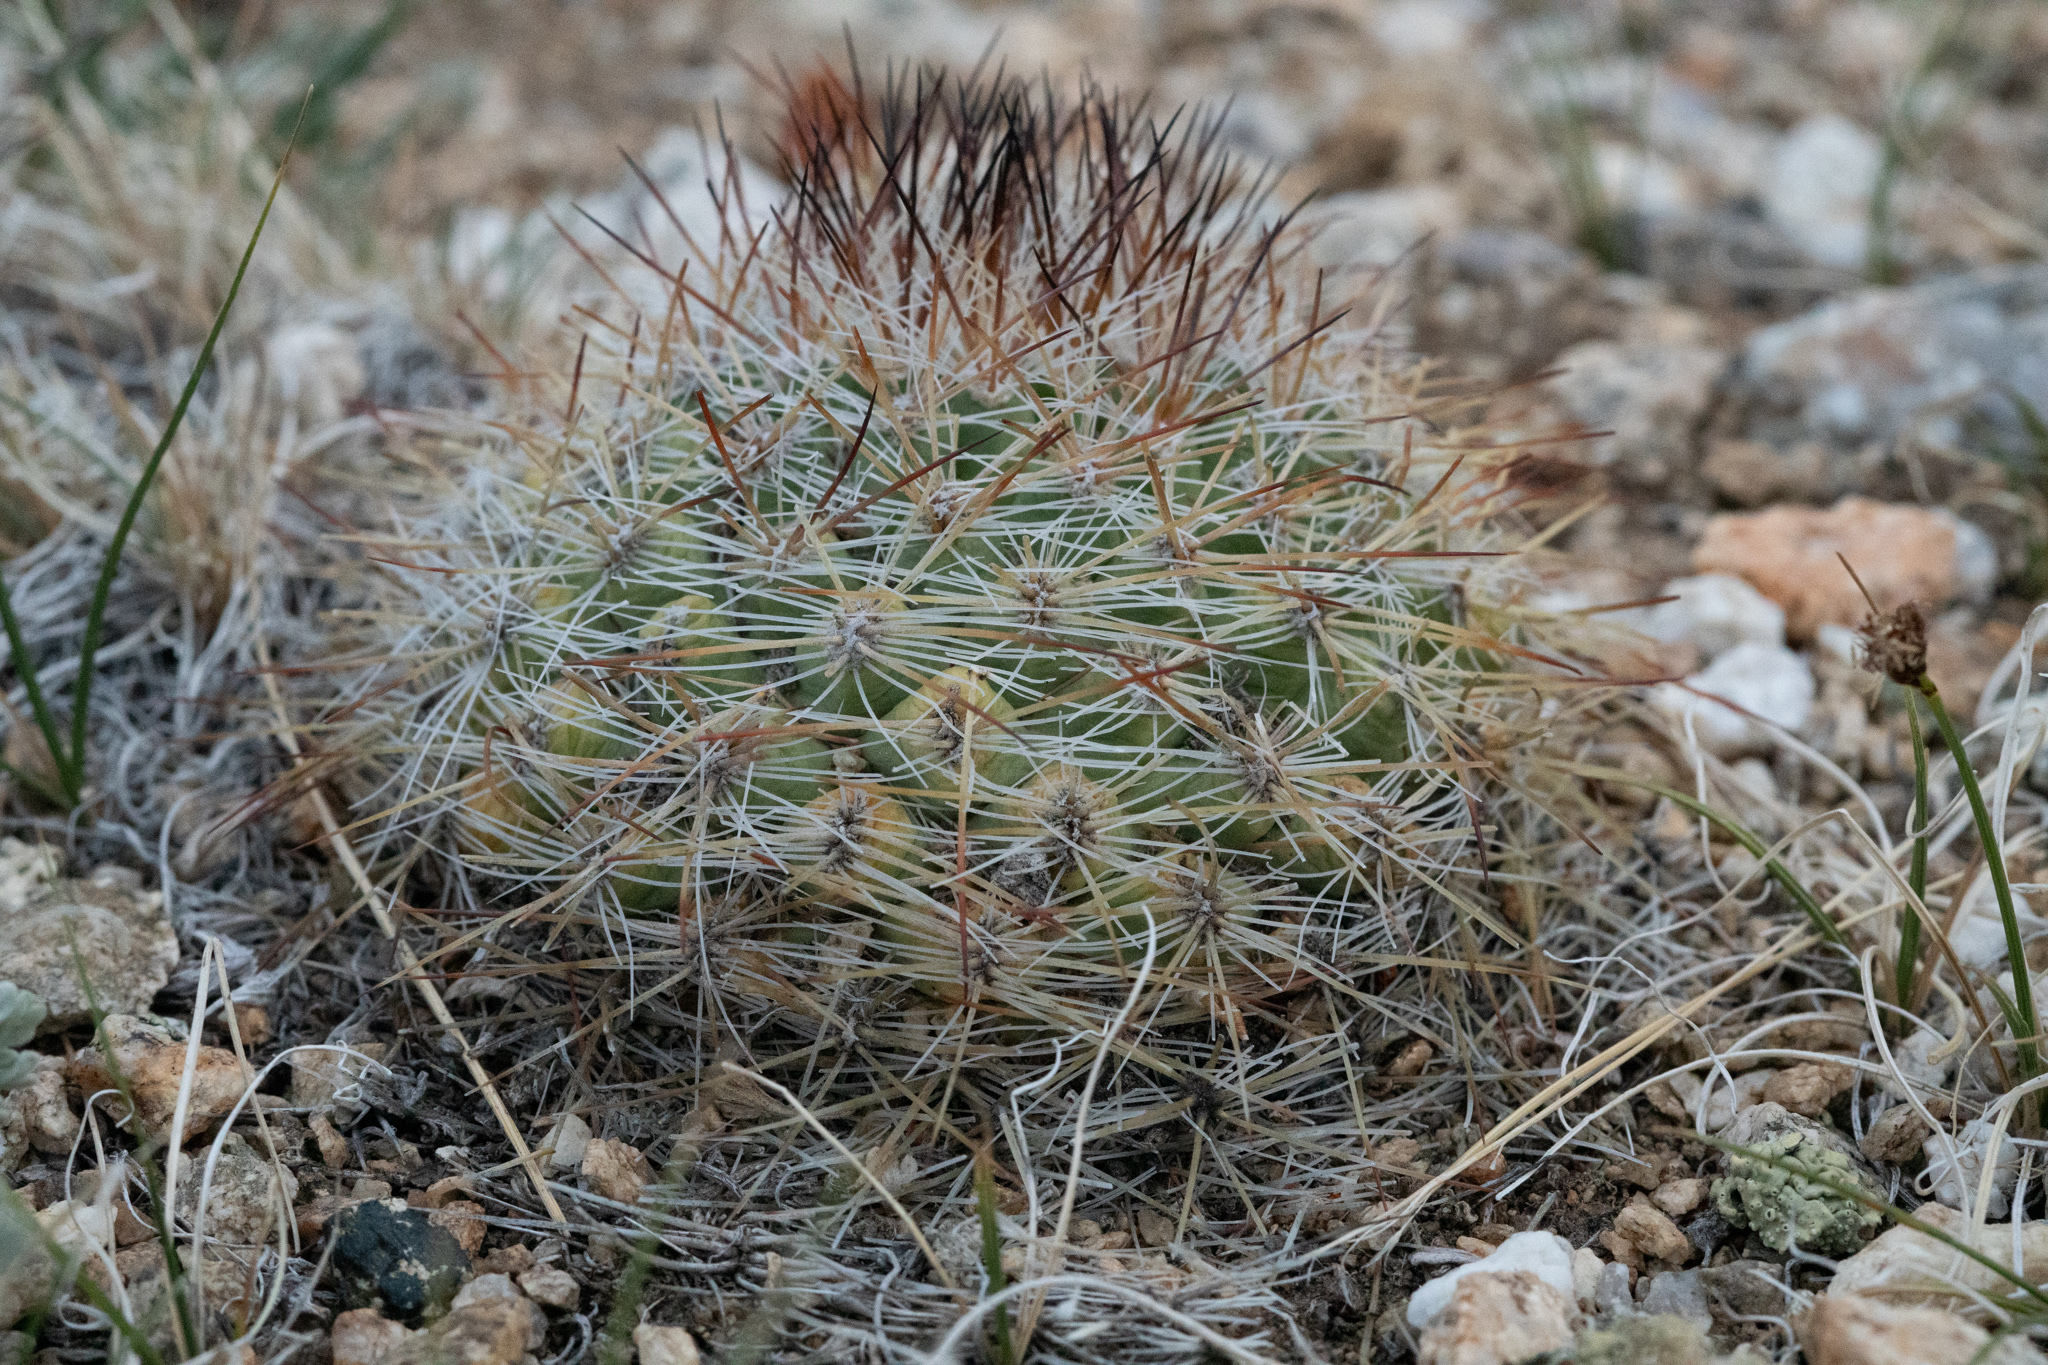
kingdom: Plantae
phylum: Tracheophyta
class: Magnoliopsida
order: Caryophyllales
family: Cactaceae
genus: Pediocactus
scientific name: Pediocactus simpsonii
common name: Simpson's hedgehog cactus
